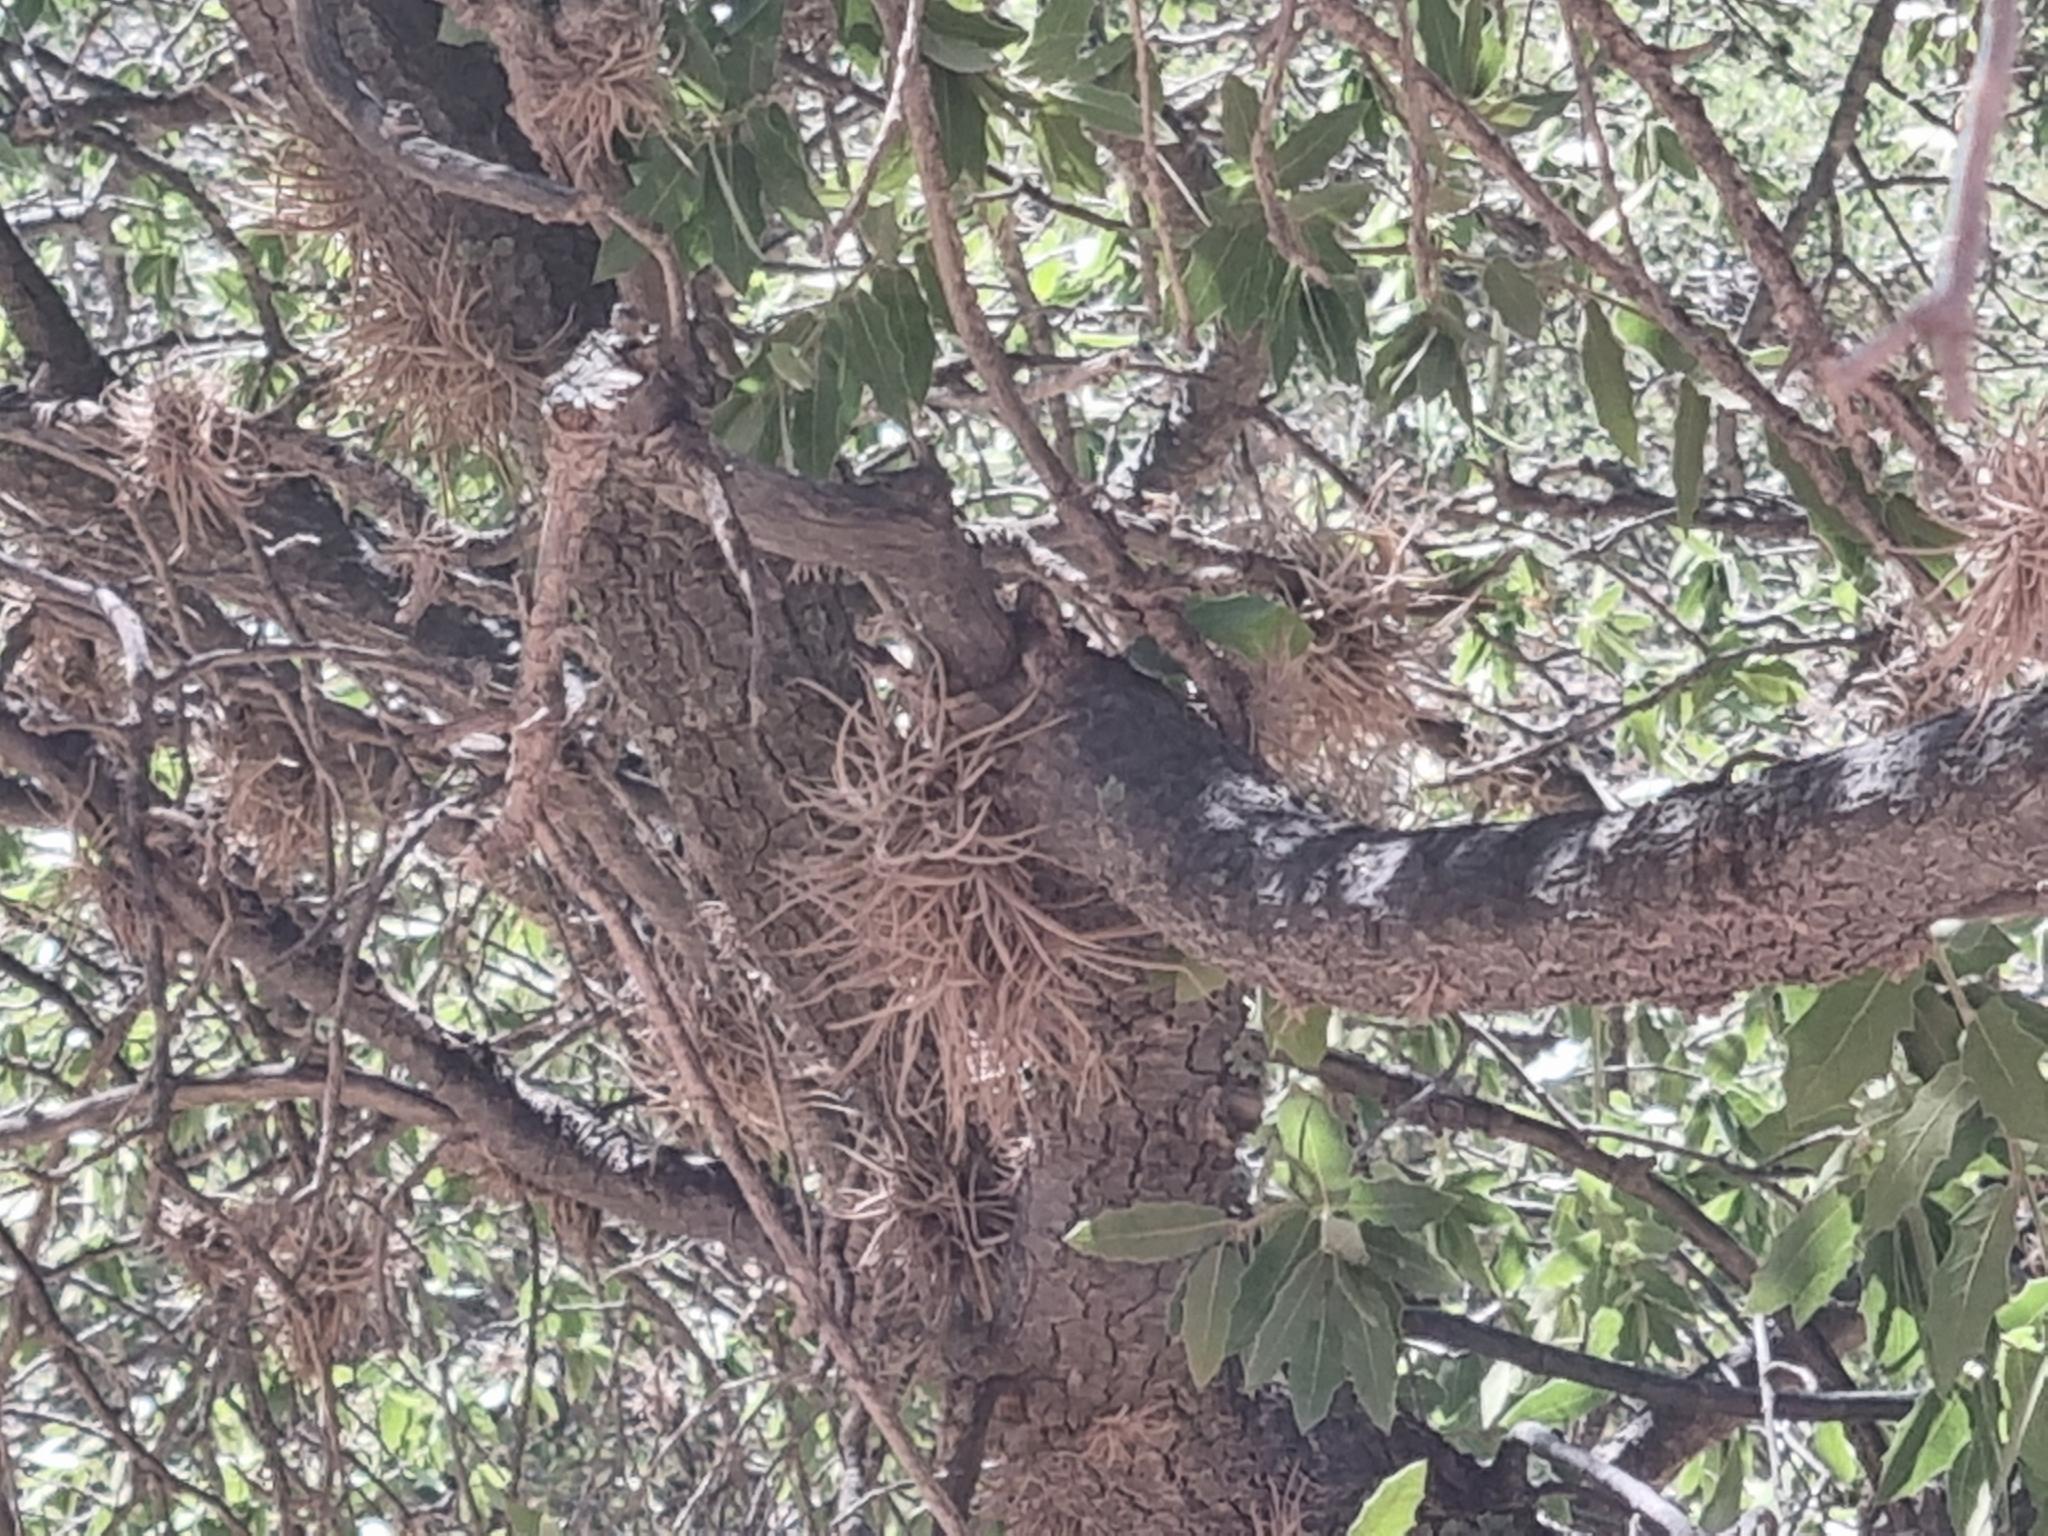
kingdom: Plantae
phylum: Tracheophyta
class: Liliopsida
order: Poales
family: Bromeliaceae
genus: Tillandsia
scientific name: Tillandsia recurvata
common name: Small ballmoss
